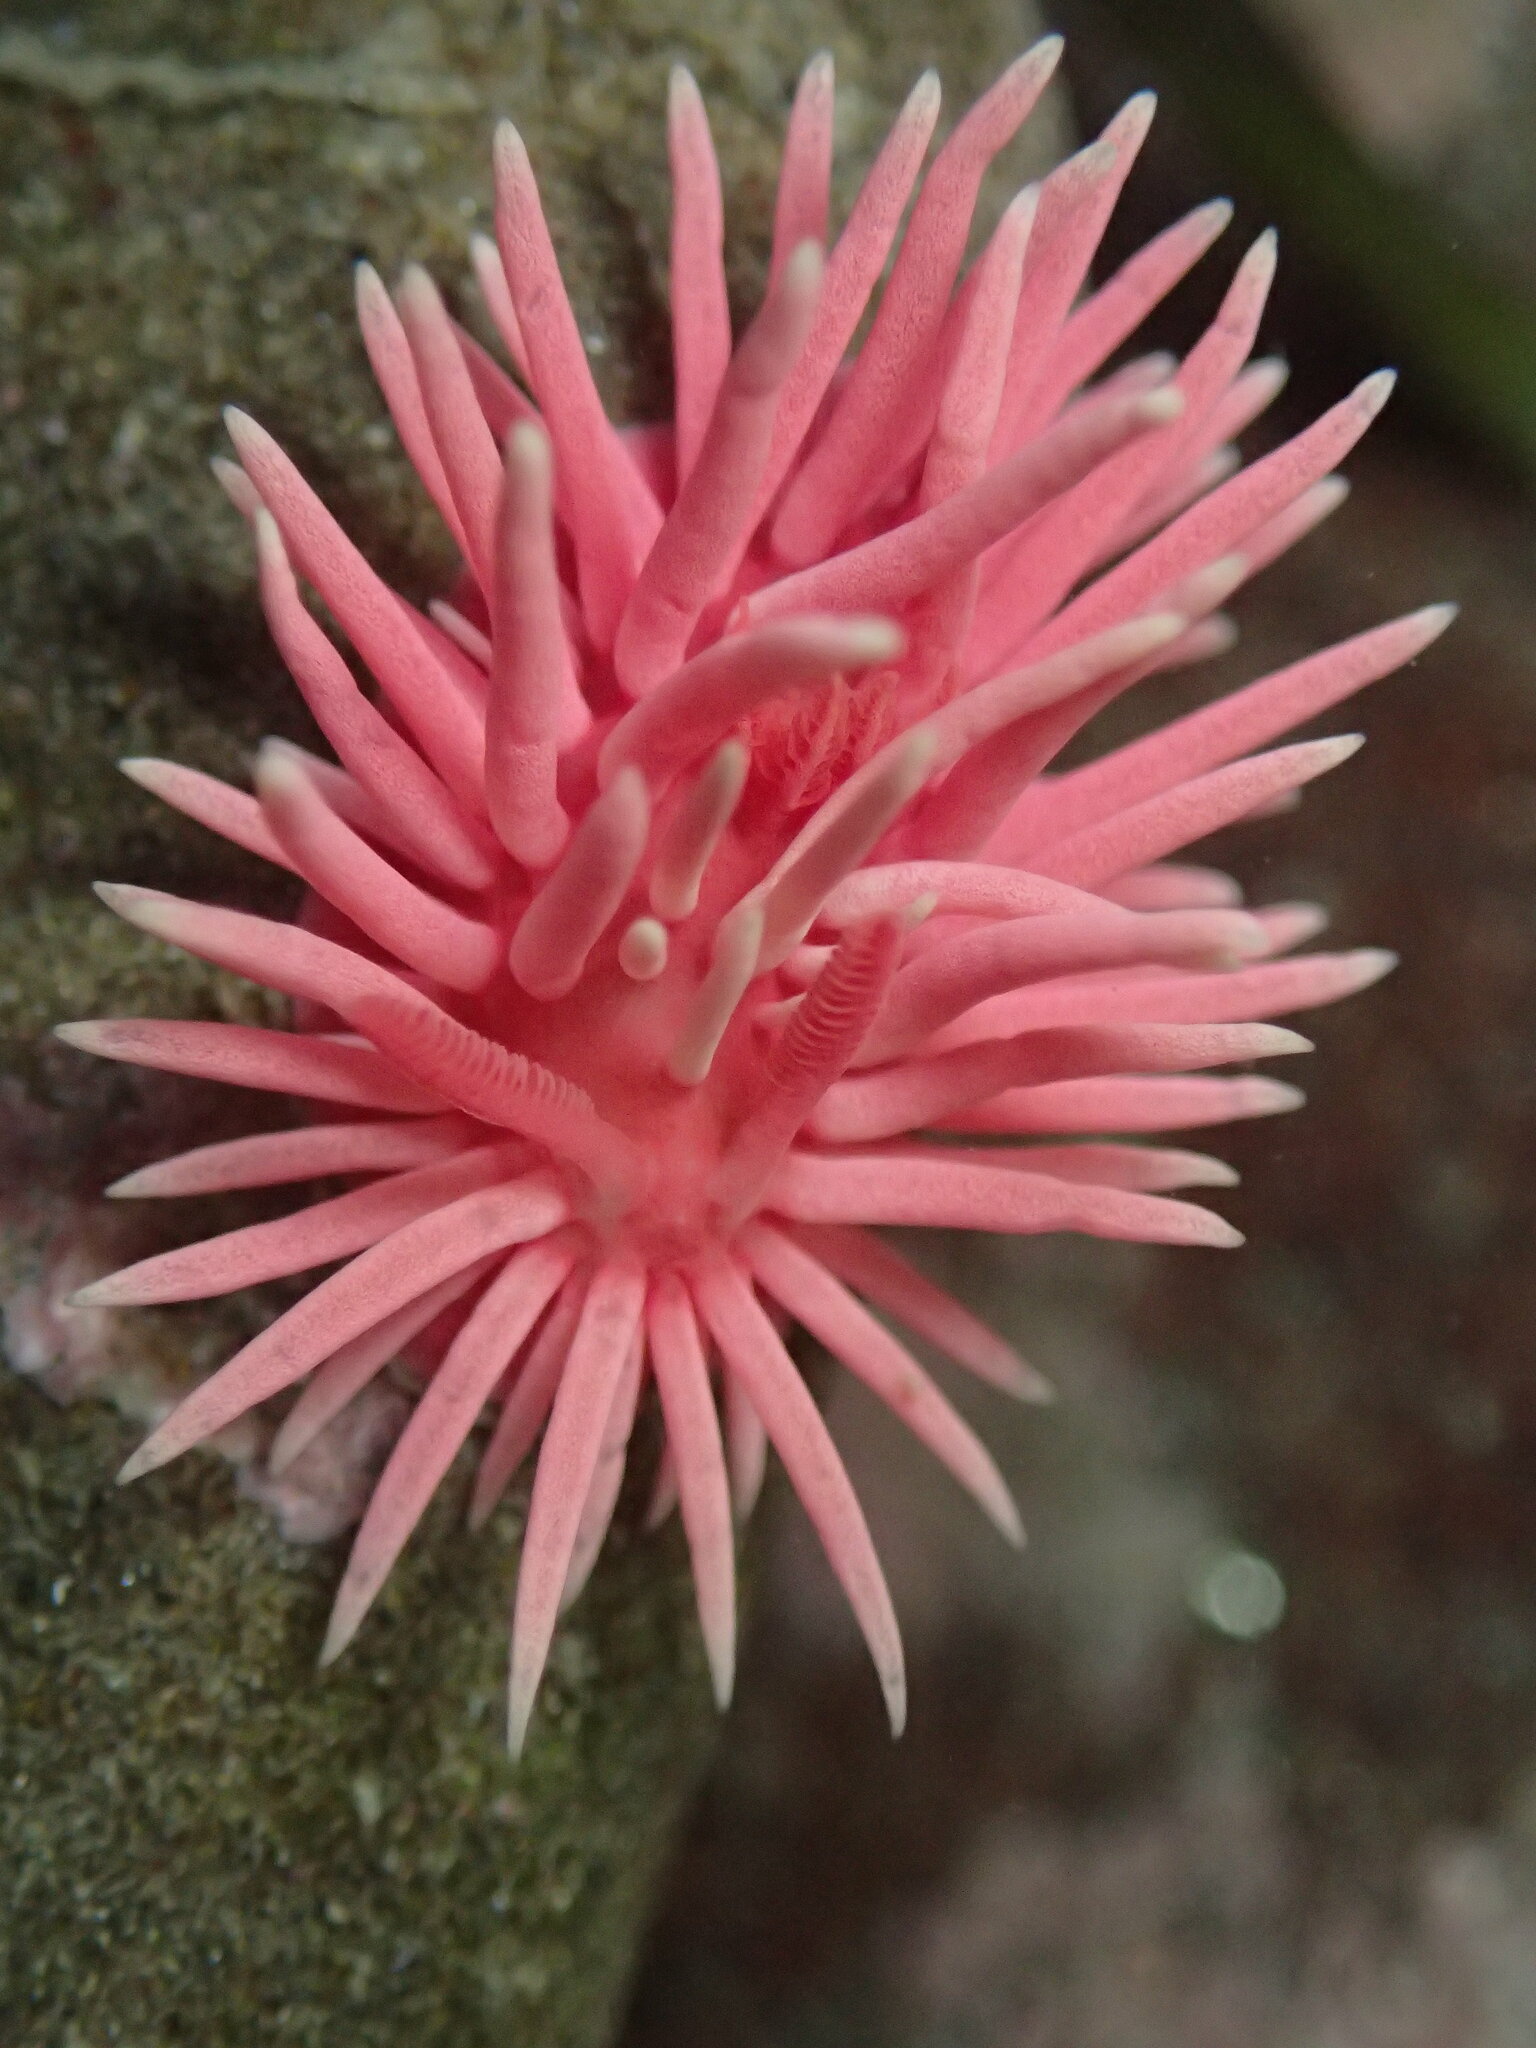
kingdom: Animalia
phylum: Mollusca
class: Gastropoda
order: Nudibranchia
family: Goniodorididae
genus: Okenia
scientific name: Okenia
